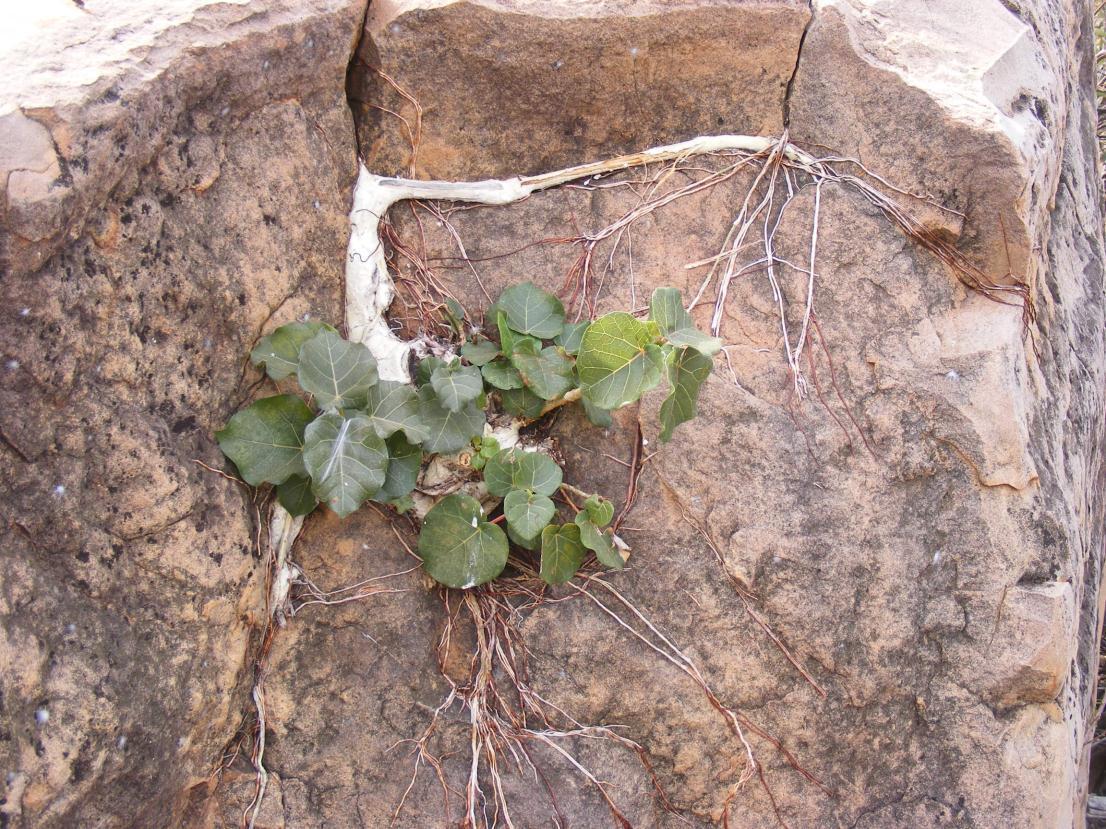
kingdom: Plantae
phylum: Tracheophyta
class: Magnoliopsida
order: Rosales
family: Moraceae
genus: Ficus
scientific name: Ficus abutilifolia
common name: Large-leaved rock fig
